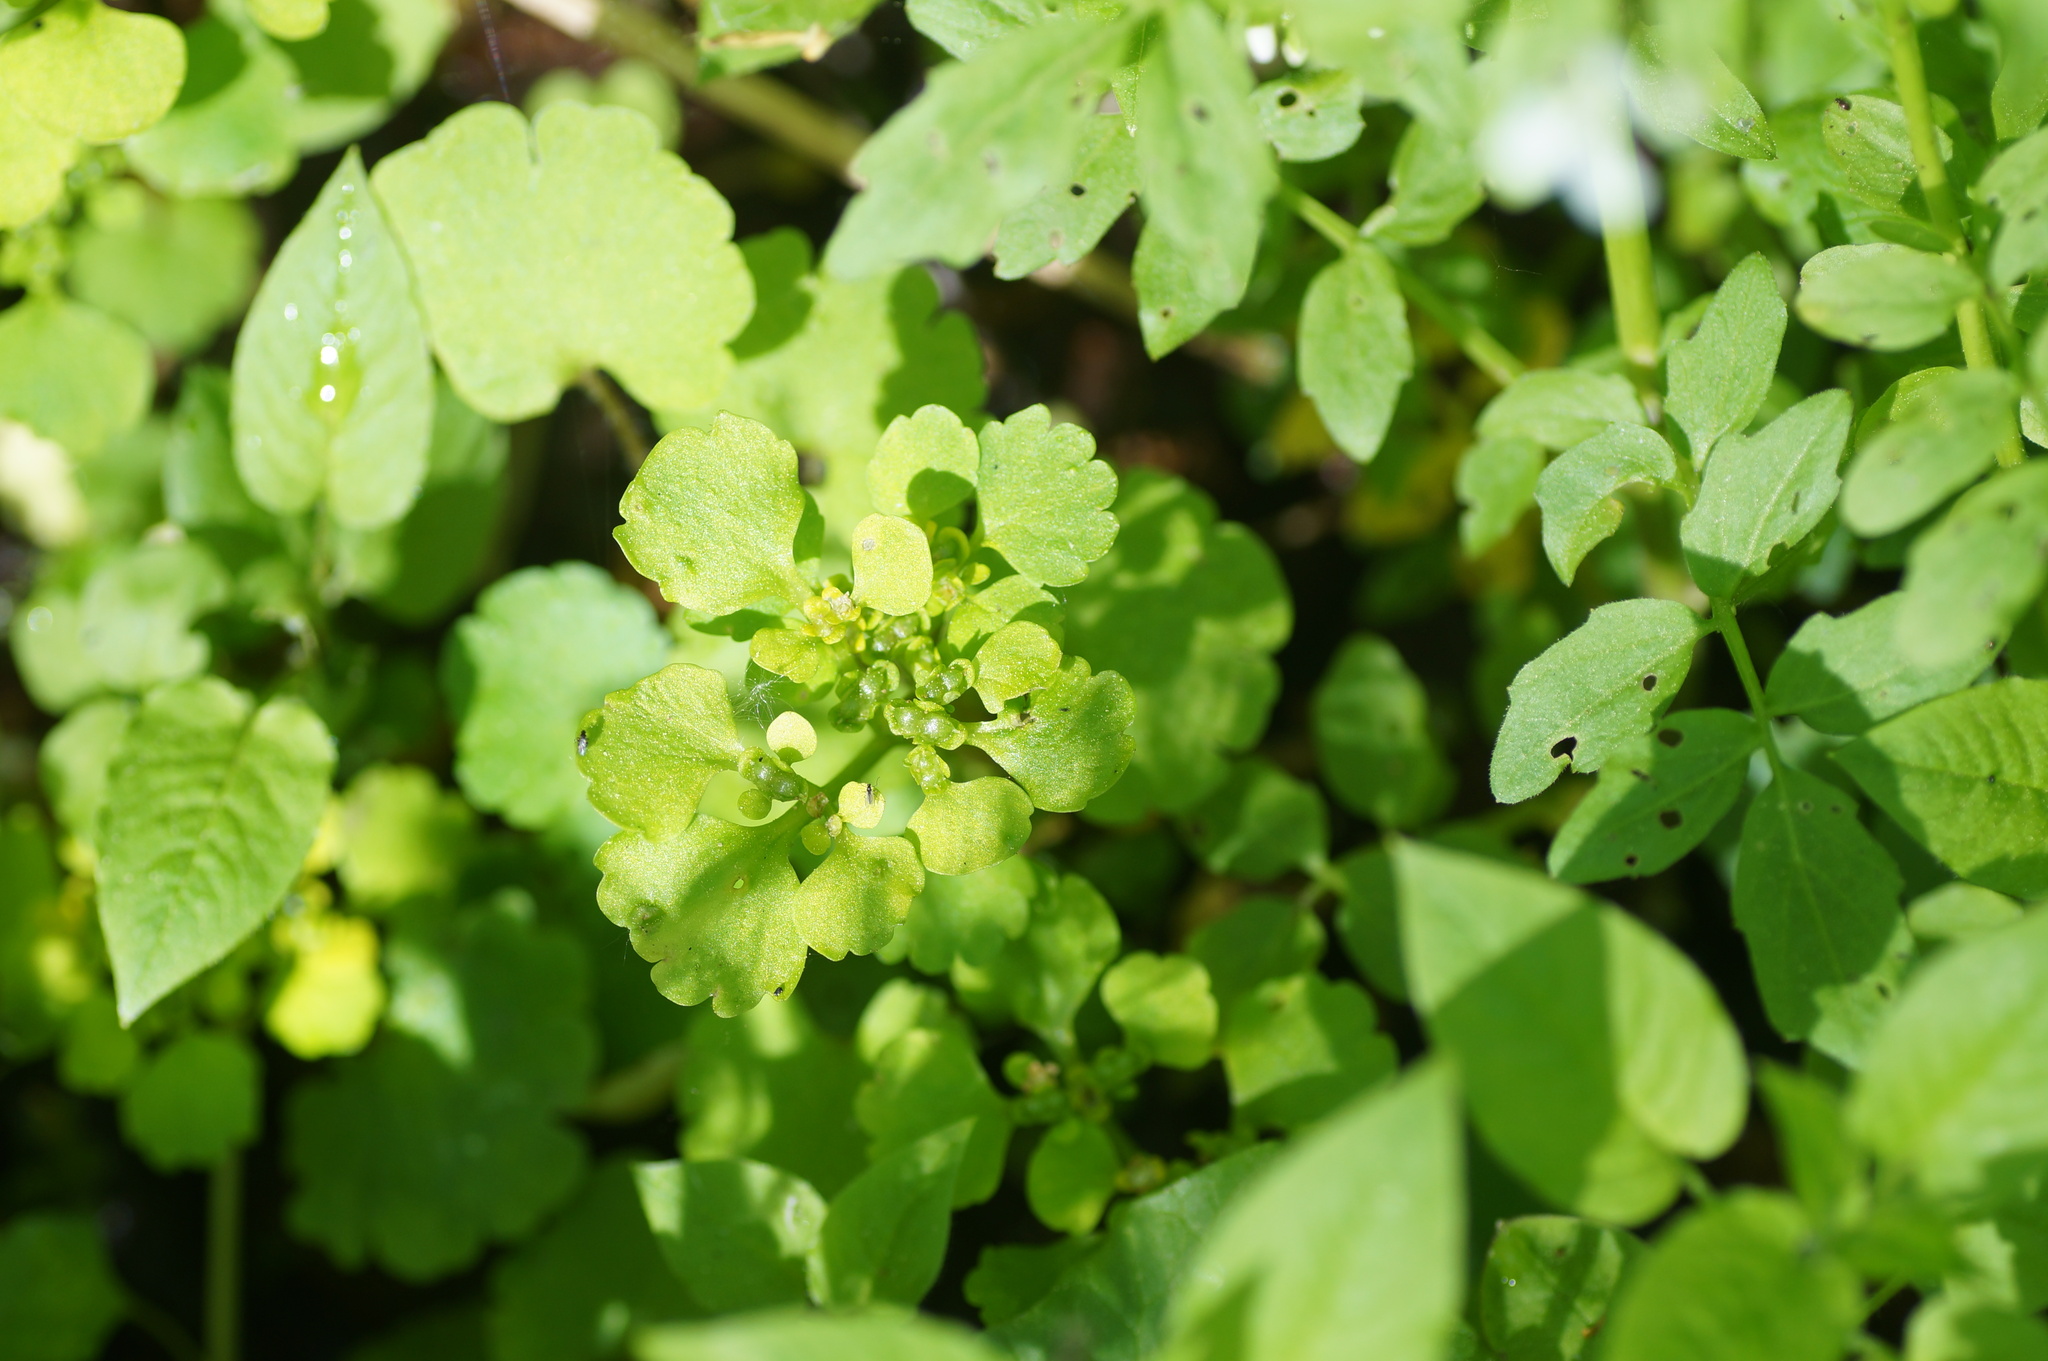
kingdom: Plantae
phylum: Tracheophyta
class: Magnoliopsida
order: Saxifragales
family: Saxifragaceae
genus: Chrysosplenium
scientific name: Chrysosplenium alternifolium
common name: Alternate-leaved golden-saxifrage
